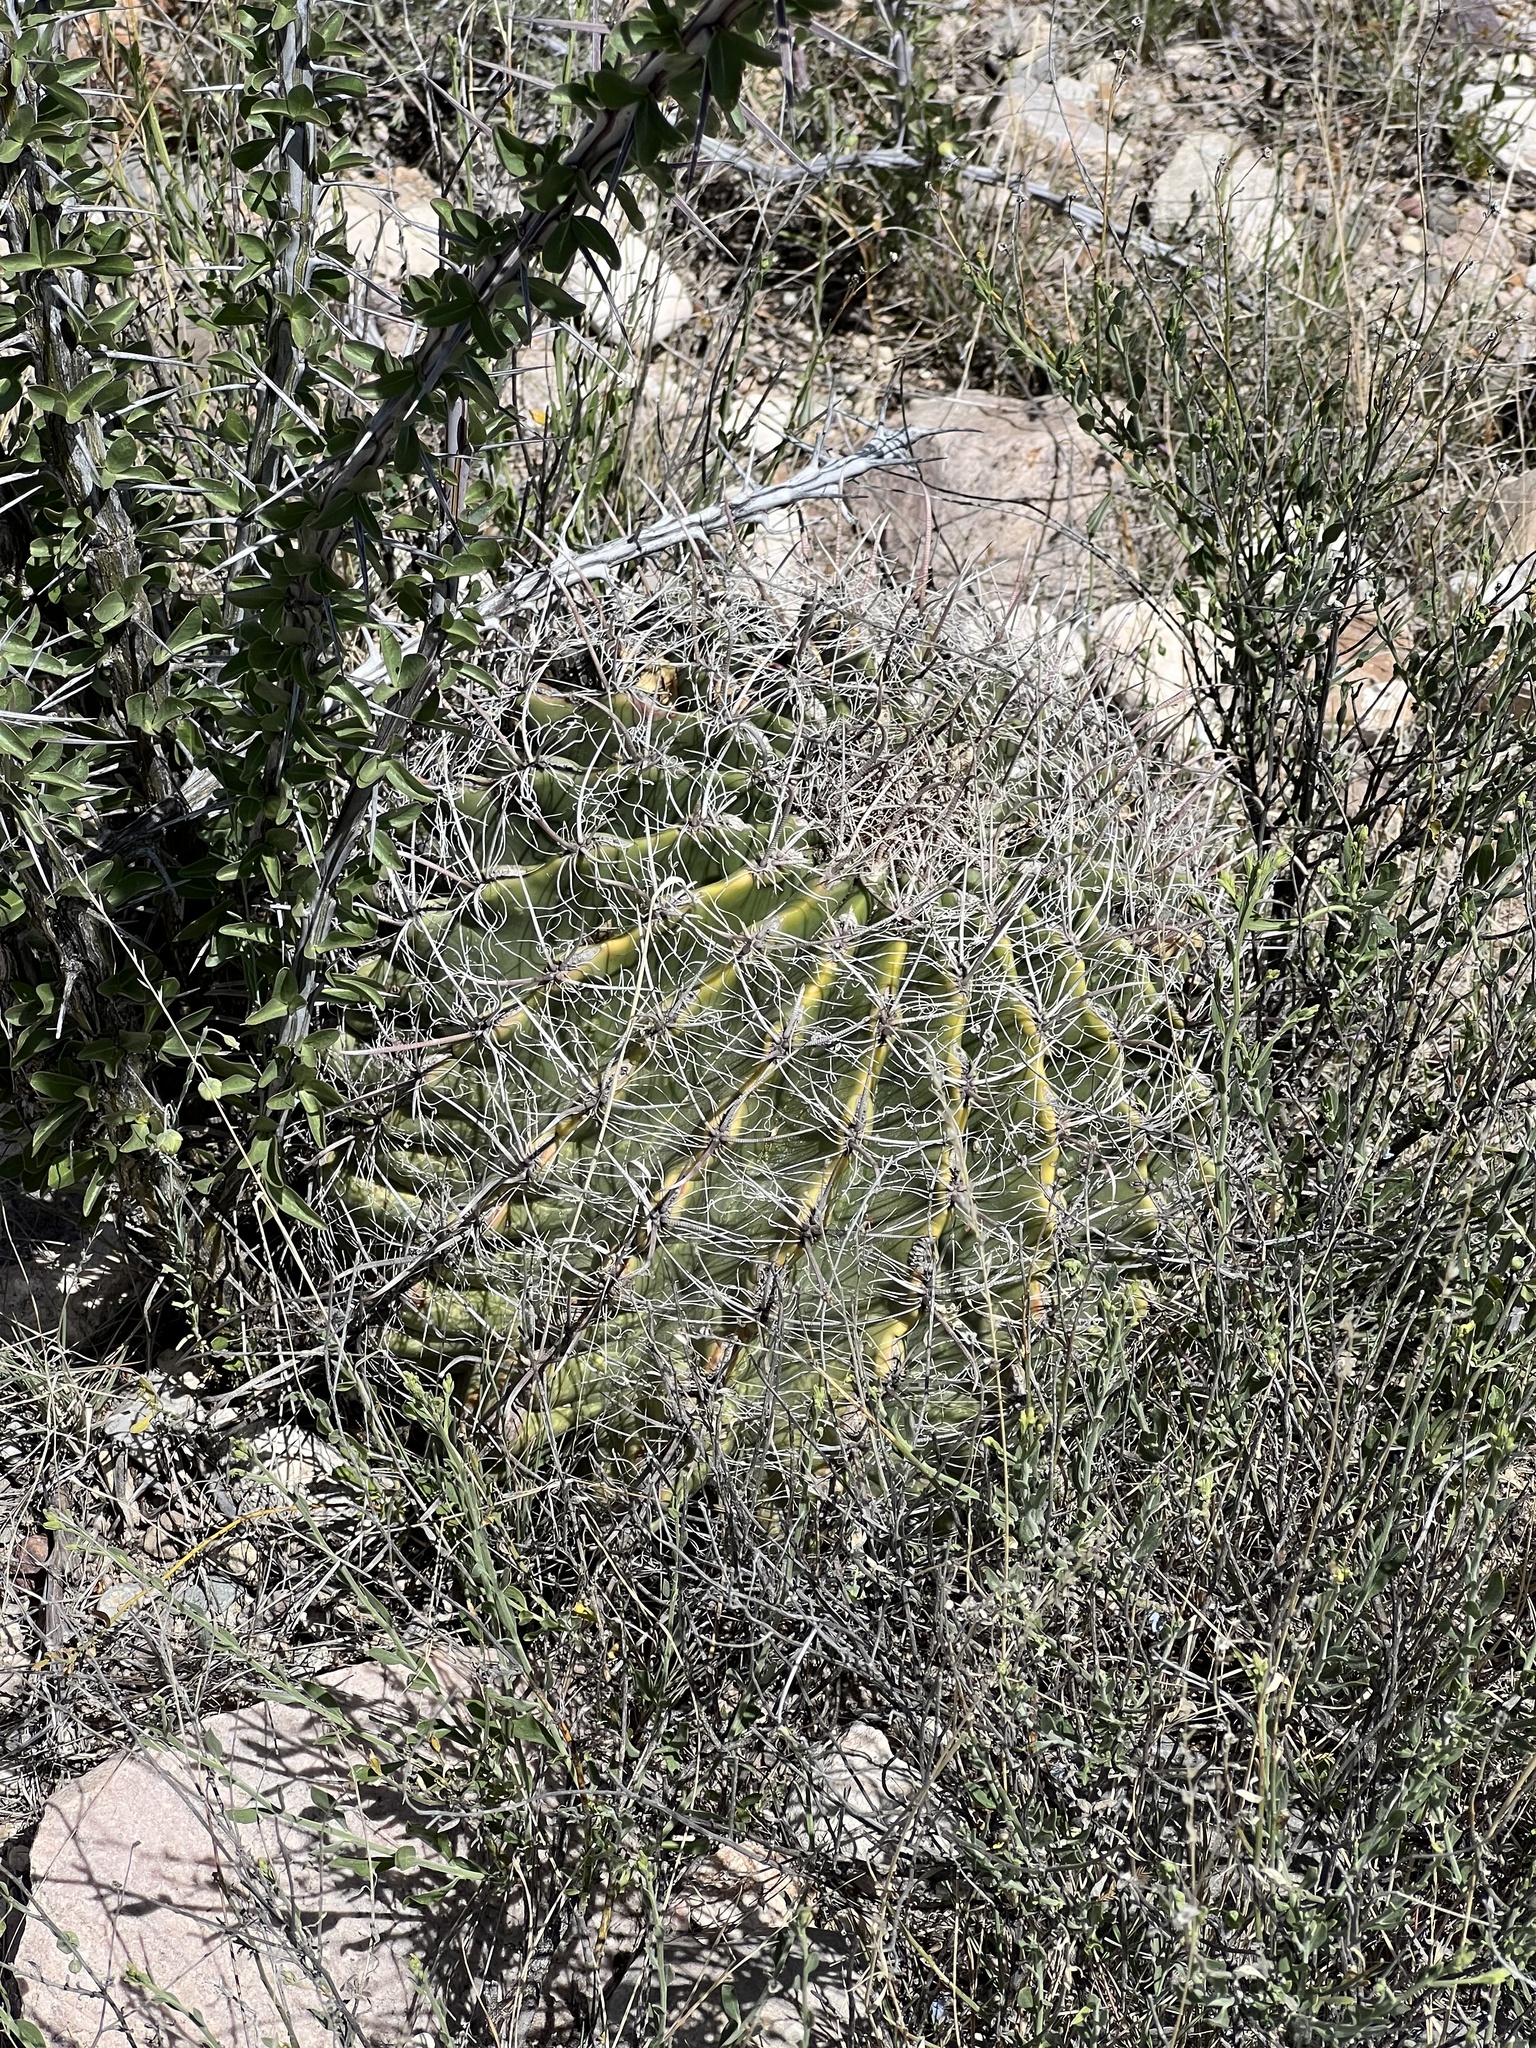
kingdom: Plantae
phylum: Tracheophyta
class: Magnoliopsida
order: Caryophyllales
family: Cactaceae
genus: Ferocactus
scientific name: Ferocactus wislizeni
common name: Candy barrel cactus
